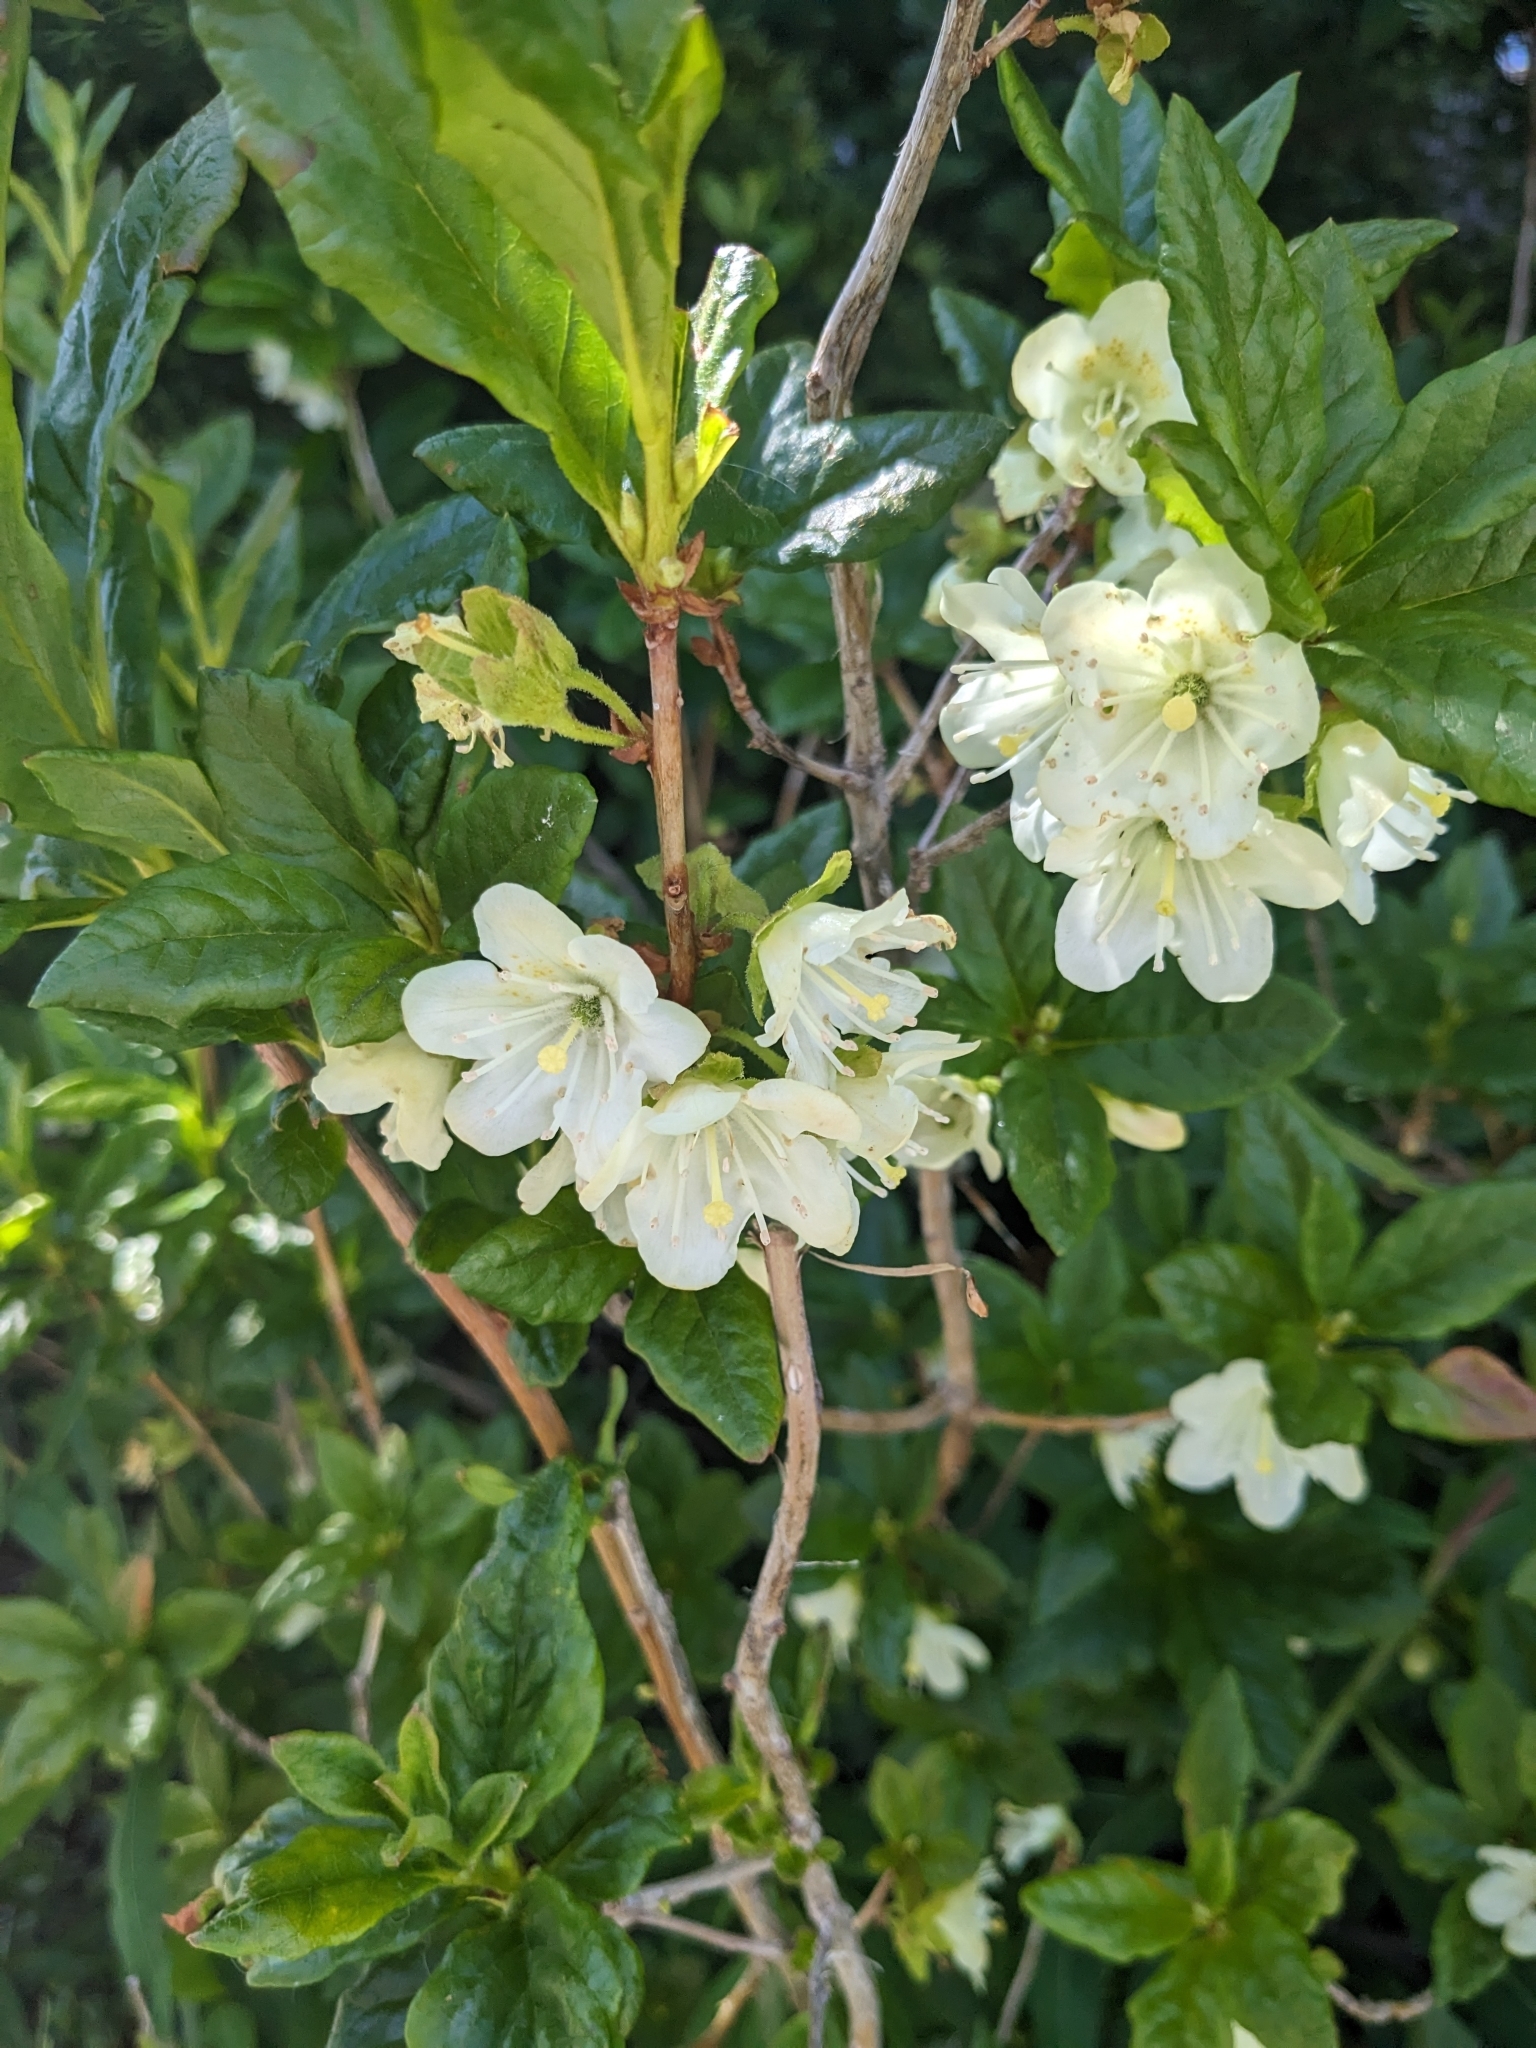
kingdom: Plantae
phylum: Tracheophyta
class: Magnoliopsida
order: Ericales
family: Ericaceae
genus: Rhododendron
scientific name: Rhododendron albiflorum
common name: White rhododendron
